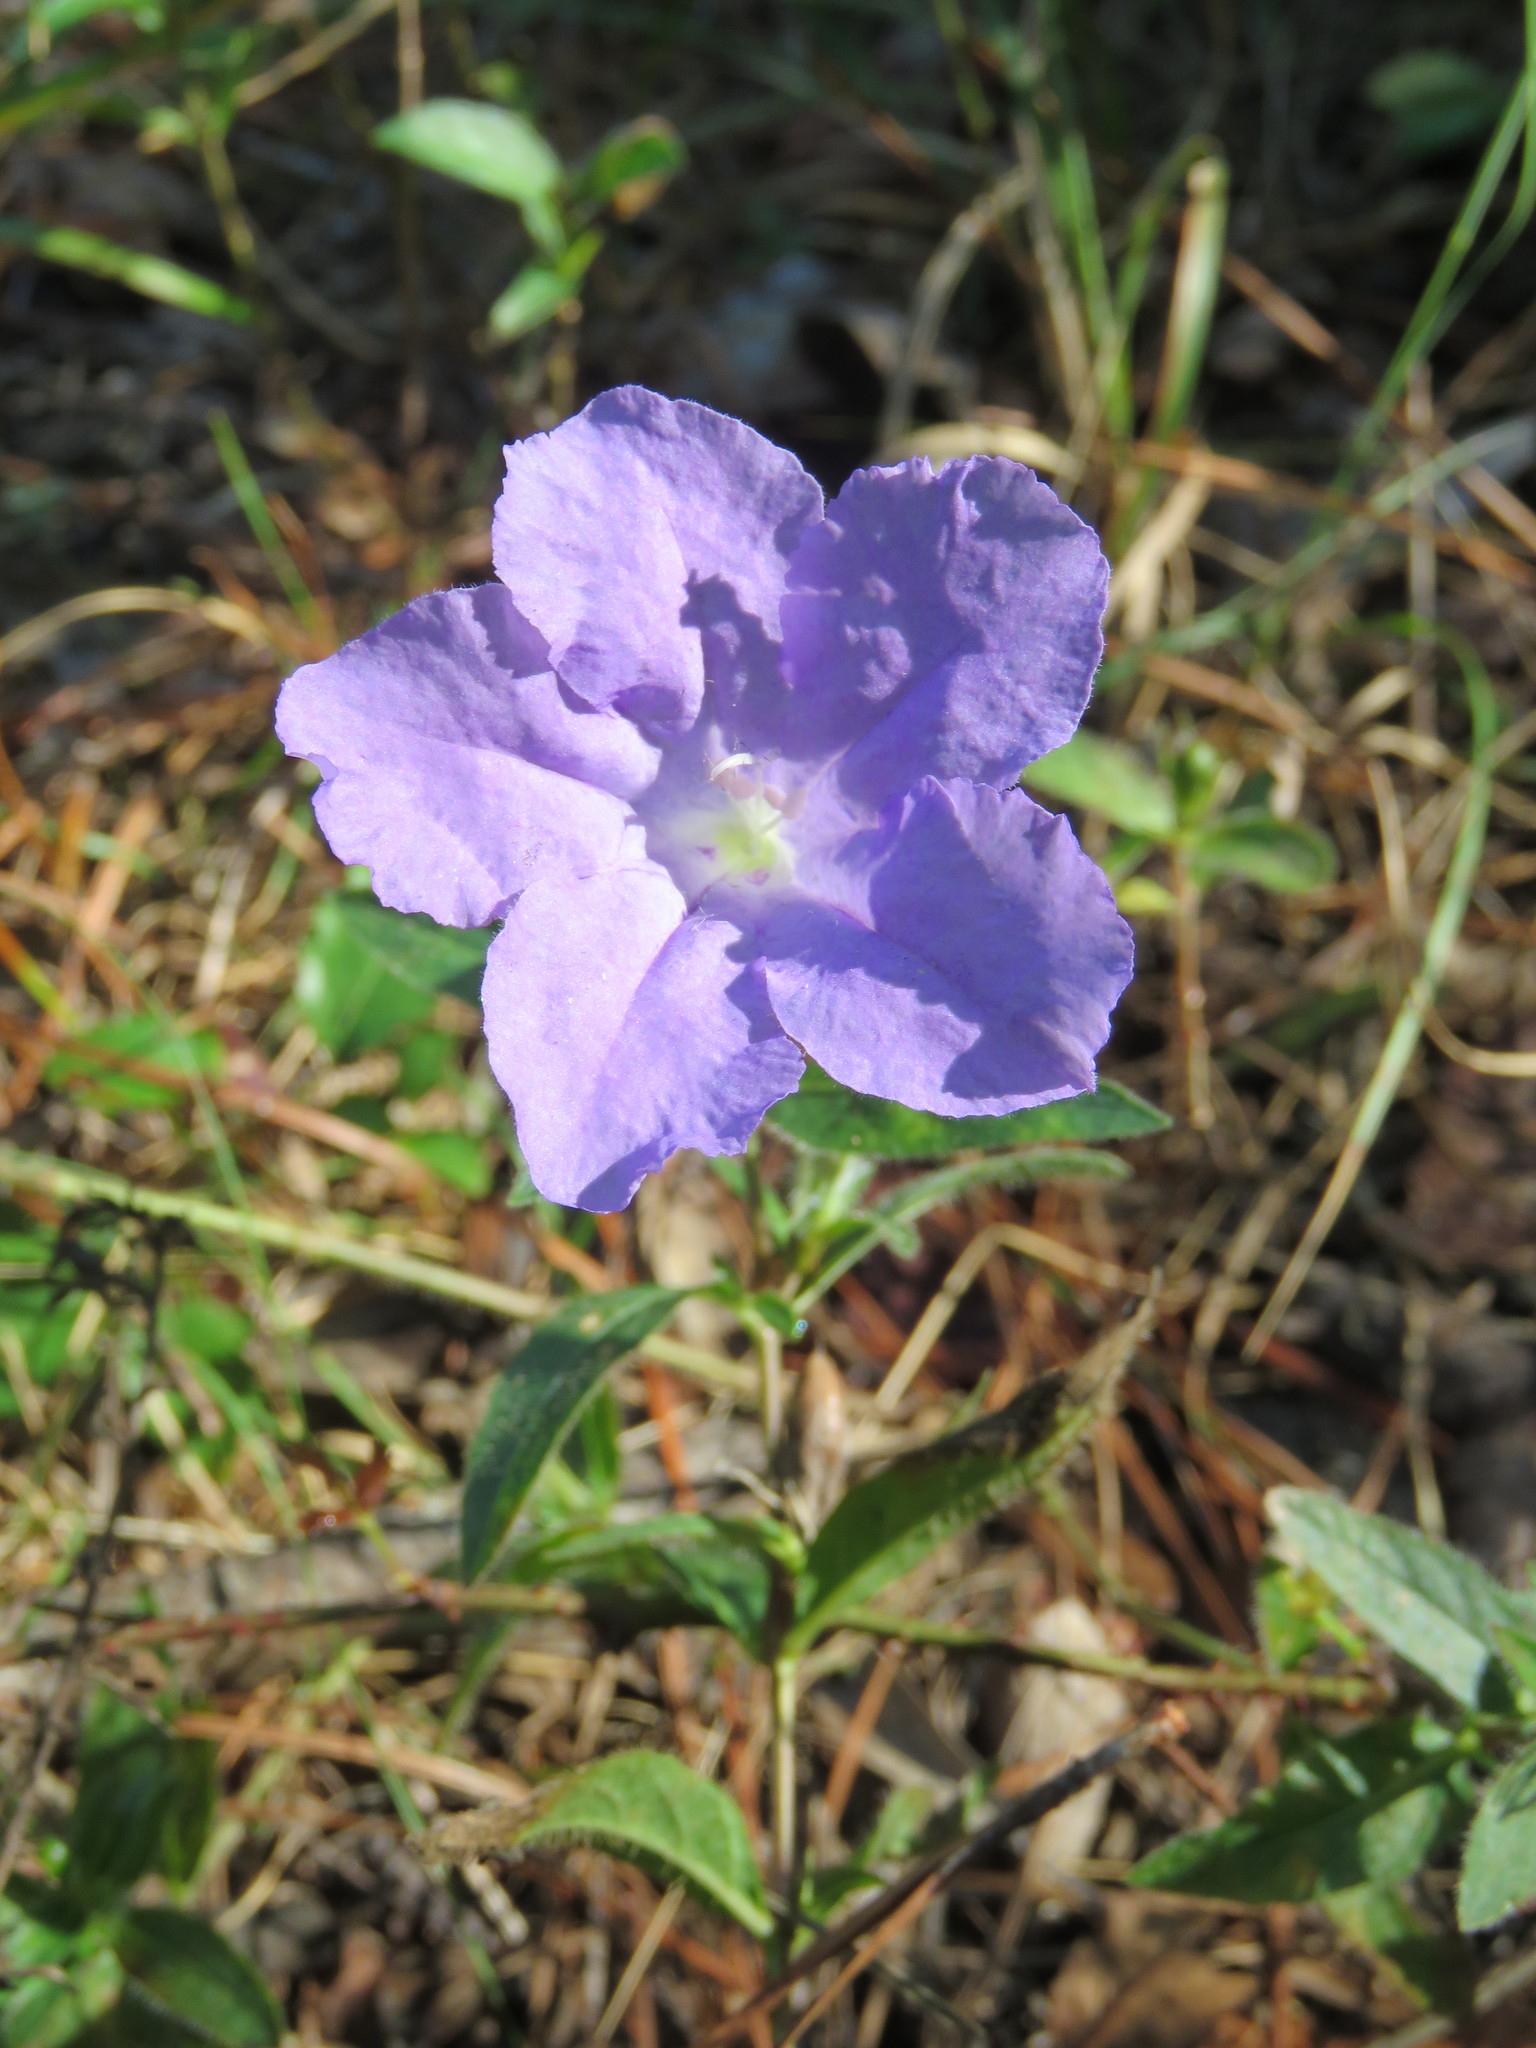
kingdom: Plantae
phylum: Tracheophyta
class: Magnoliopsida
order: Lamiales
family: Acanthaceae
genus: Ruellia
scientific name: Ruellia humilis
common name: Fringe-leaf ruellia
